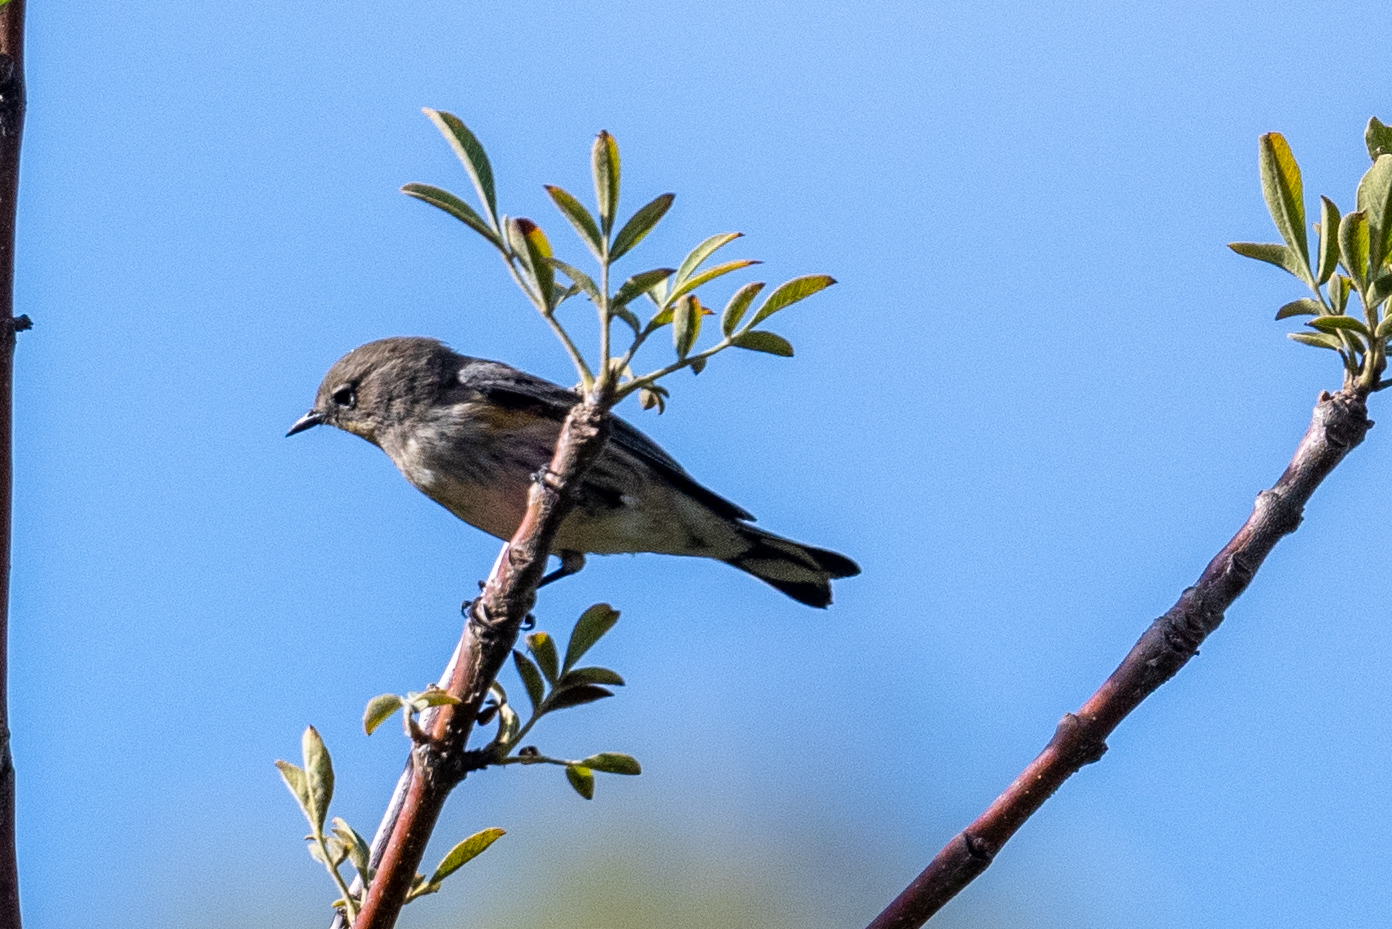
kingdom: Animalia
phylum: Chordata
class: Aves
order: Passeriformes
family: Parulidae
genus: Setophaga
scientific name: Setophaga coronata
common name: Myrtle warbler
